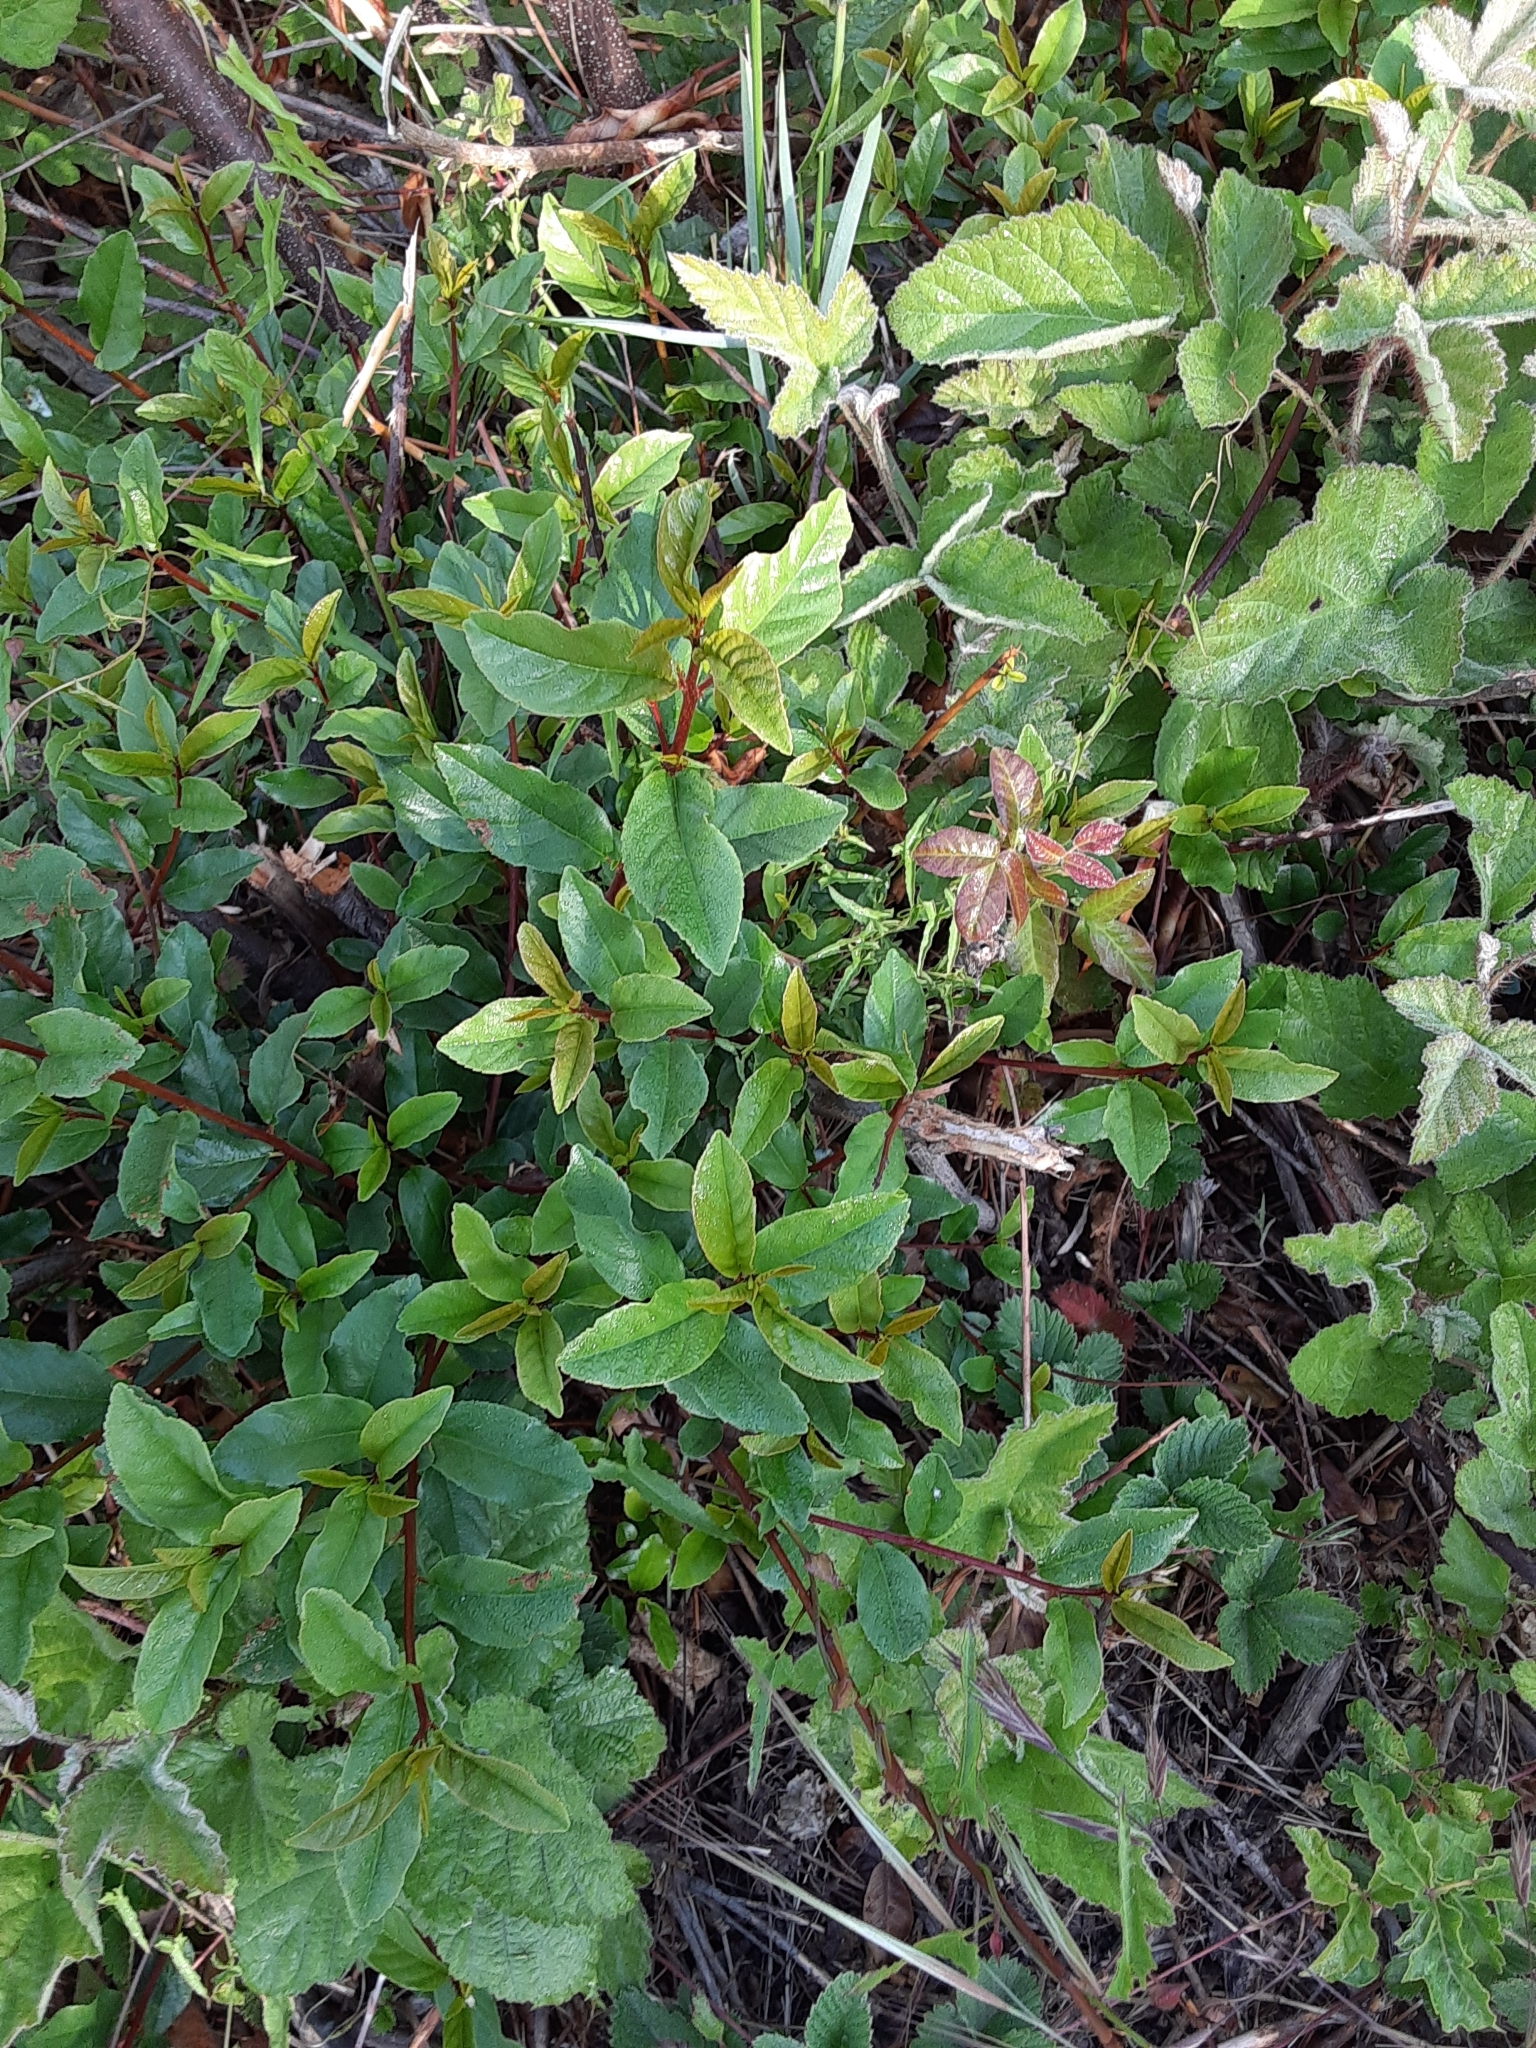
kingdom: Plantae
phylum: Tracheophyta
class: Magnoliopsida
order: Dipsacales
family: Caprifoliaceae
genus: Lonicera
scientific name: Lonicera involucrata
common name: Californian honeysuckle
